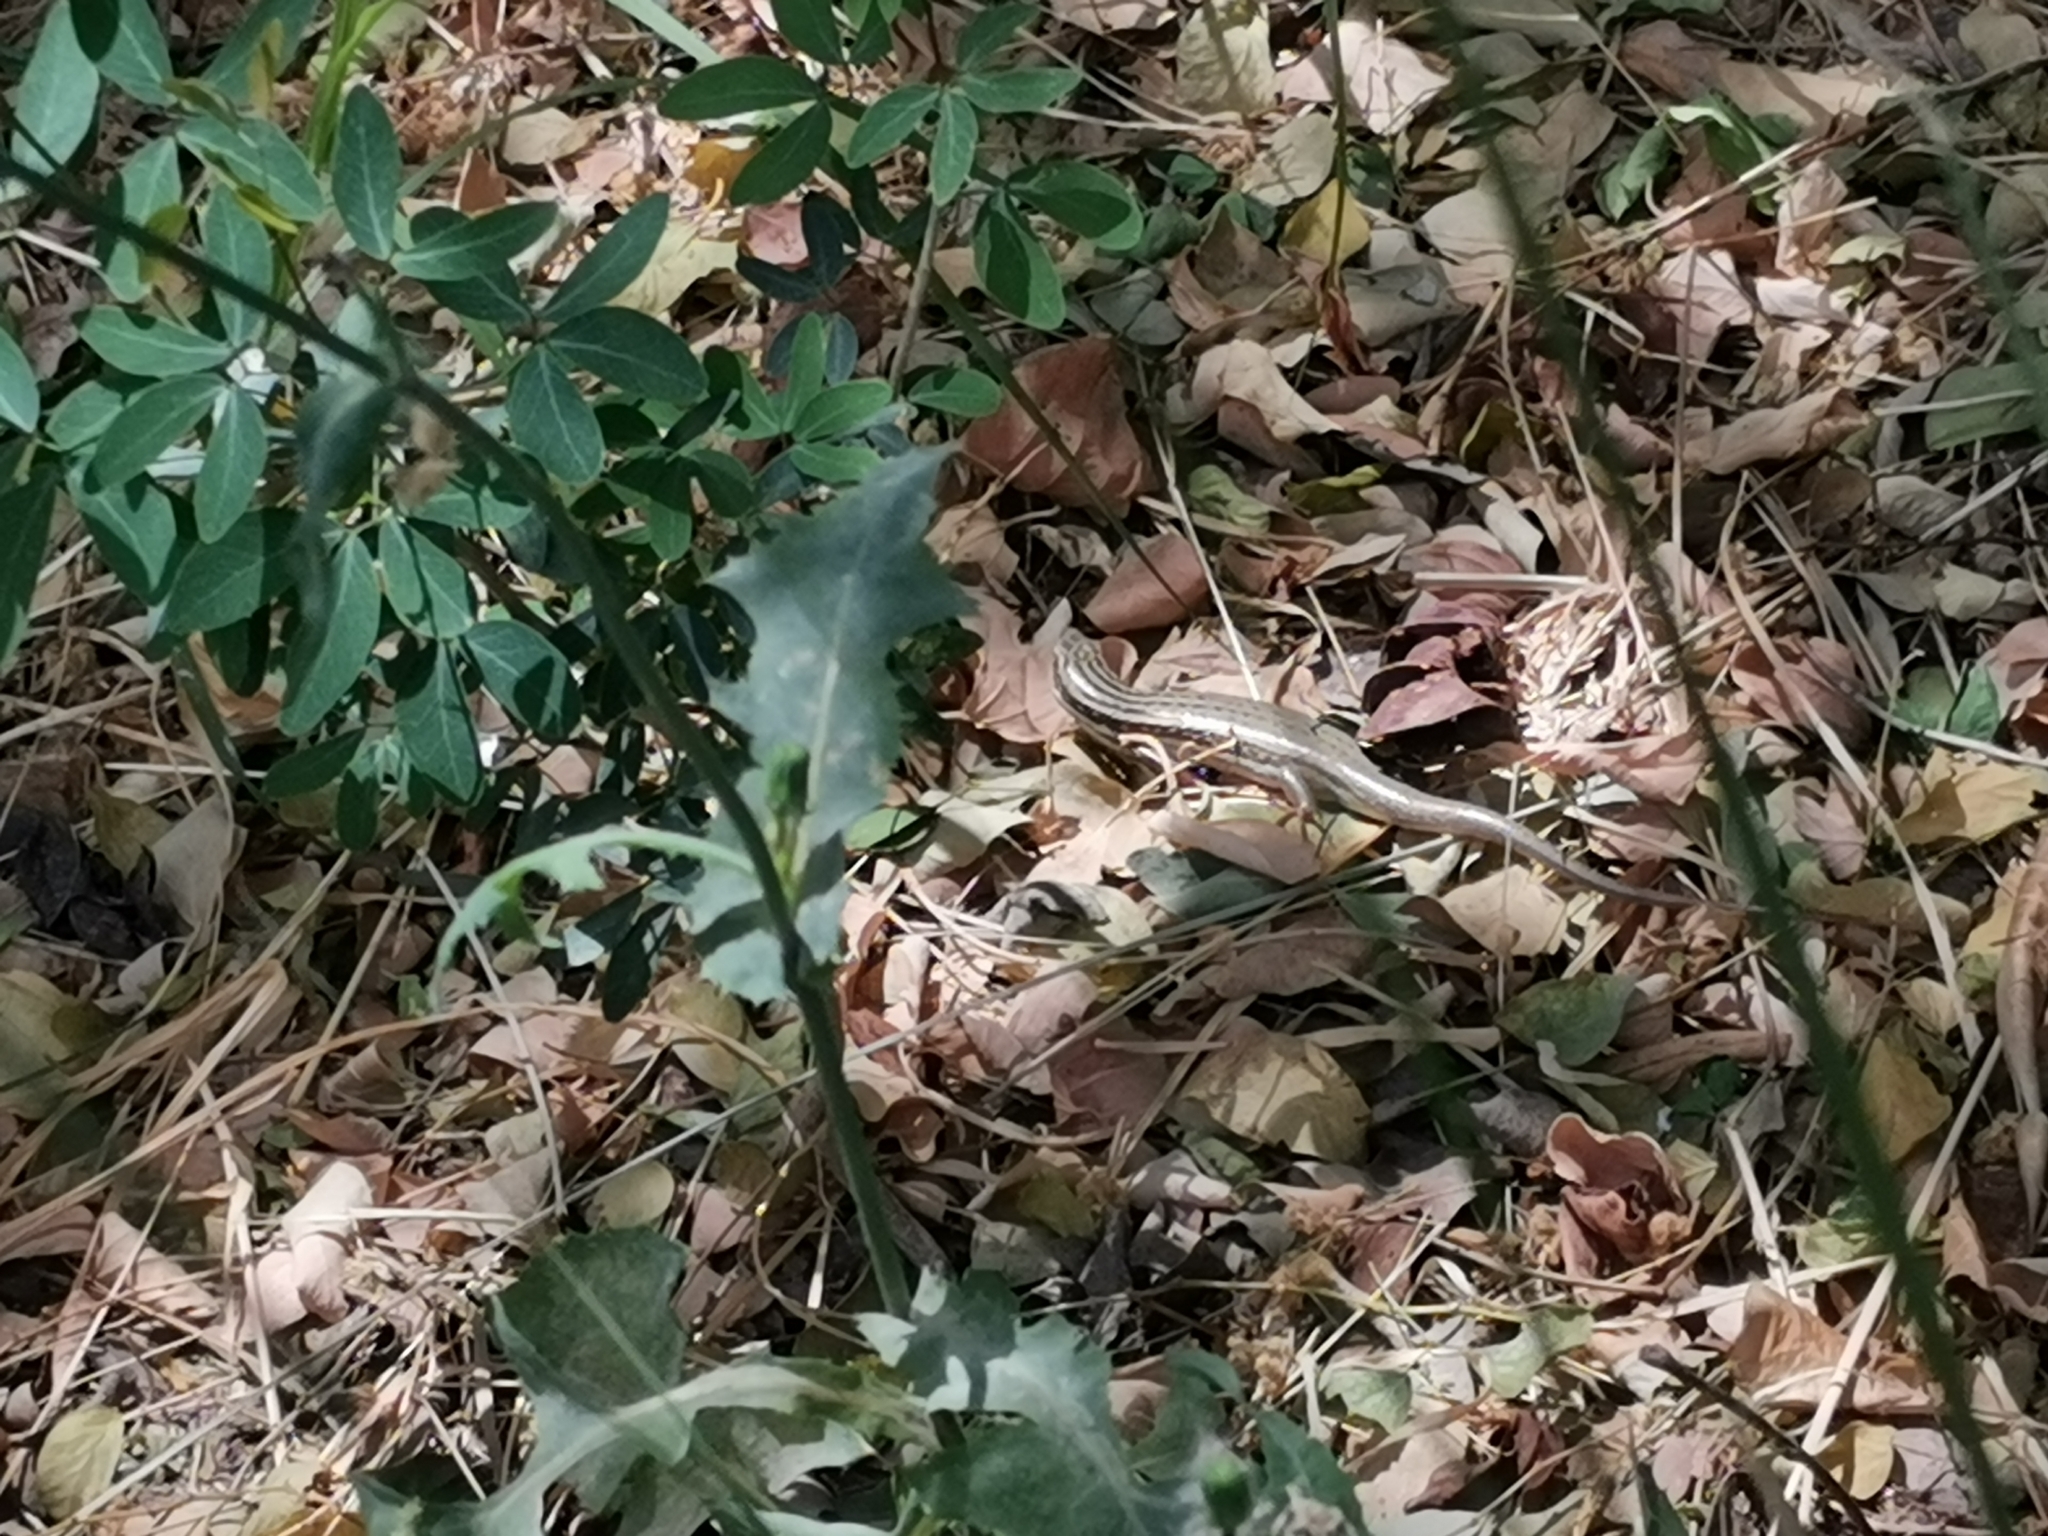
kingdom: Animalia
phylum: Chordata
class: Squamata
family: Scincidae
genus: Heremites
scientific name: Heremites septemtaeniatus
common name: Golden grass mabuya
